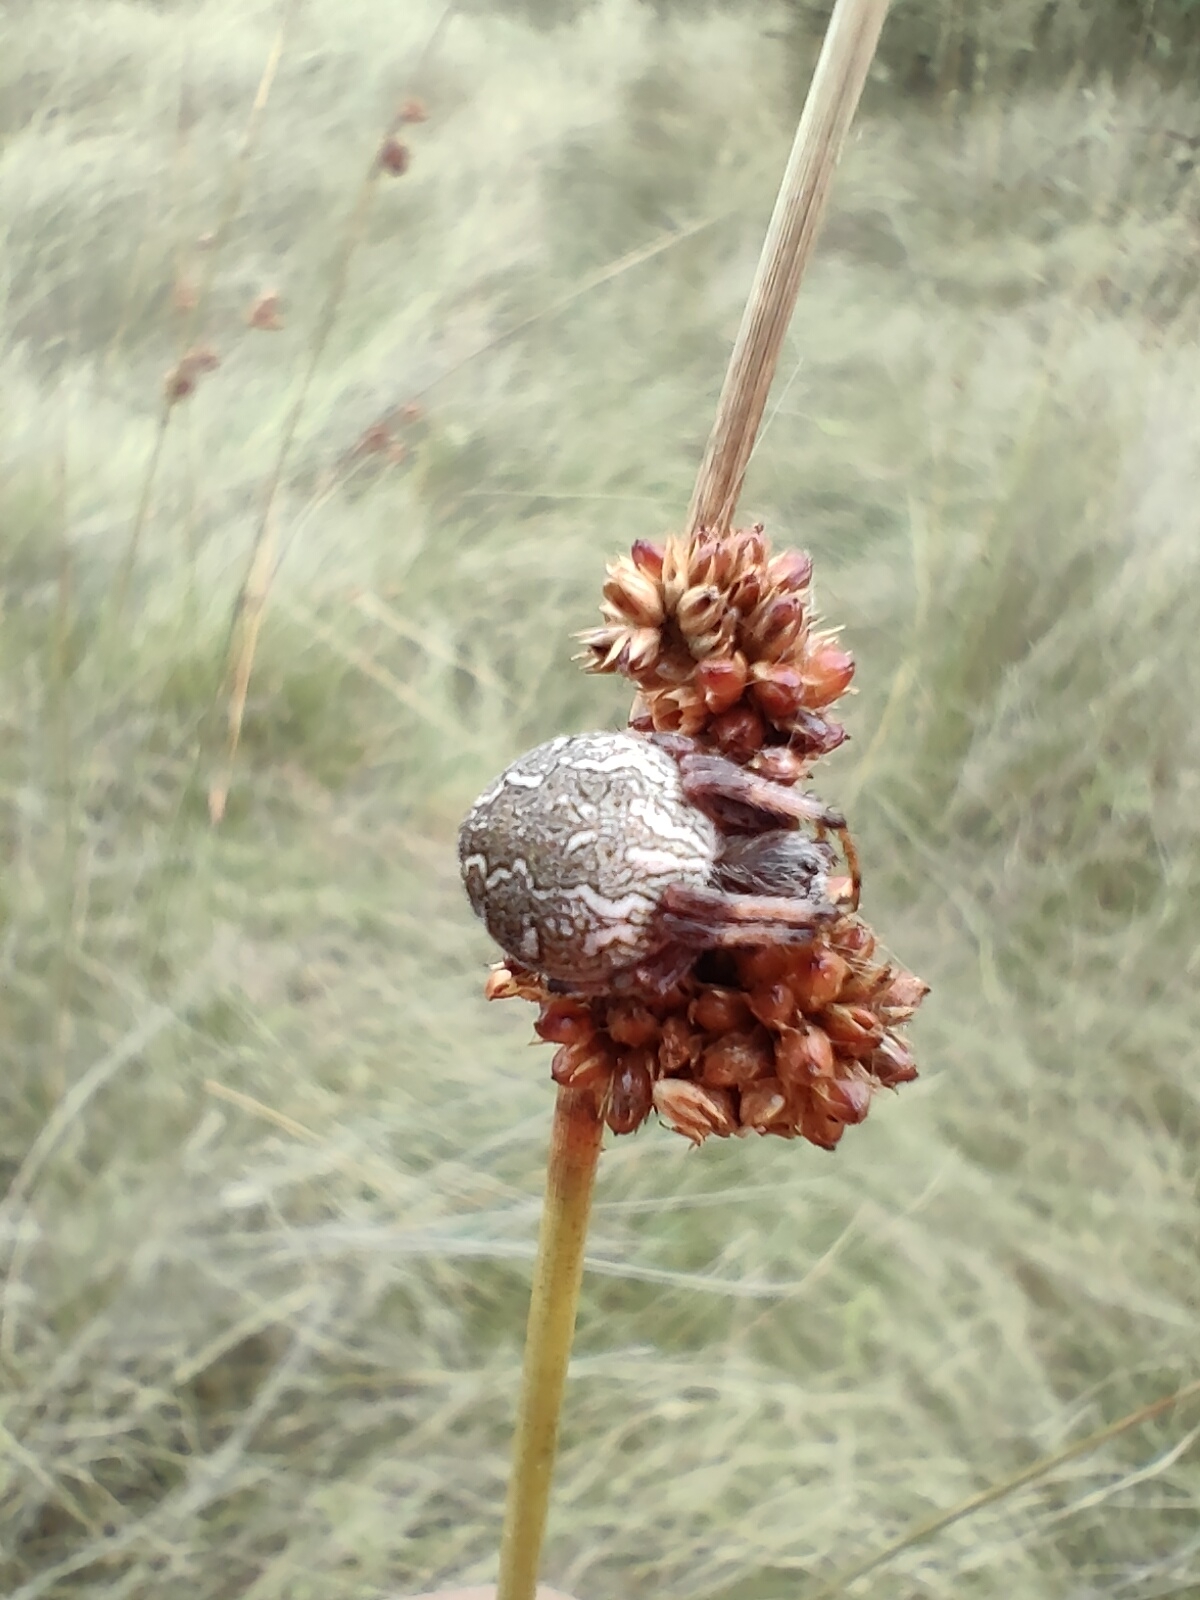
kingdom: Animalia
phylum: Arthropoda
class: Arachnida
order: Araneae
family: Araneidae
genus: Salsa
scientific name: Salsa fuliginata
